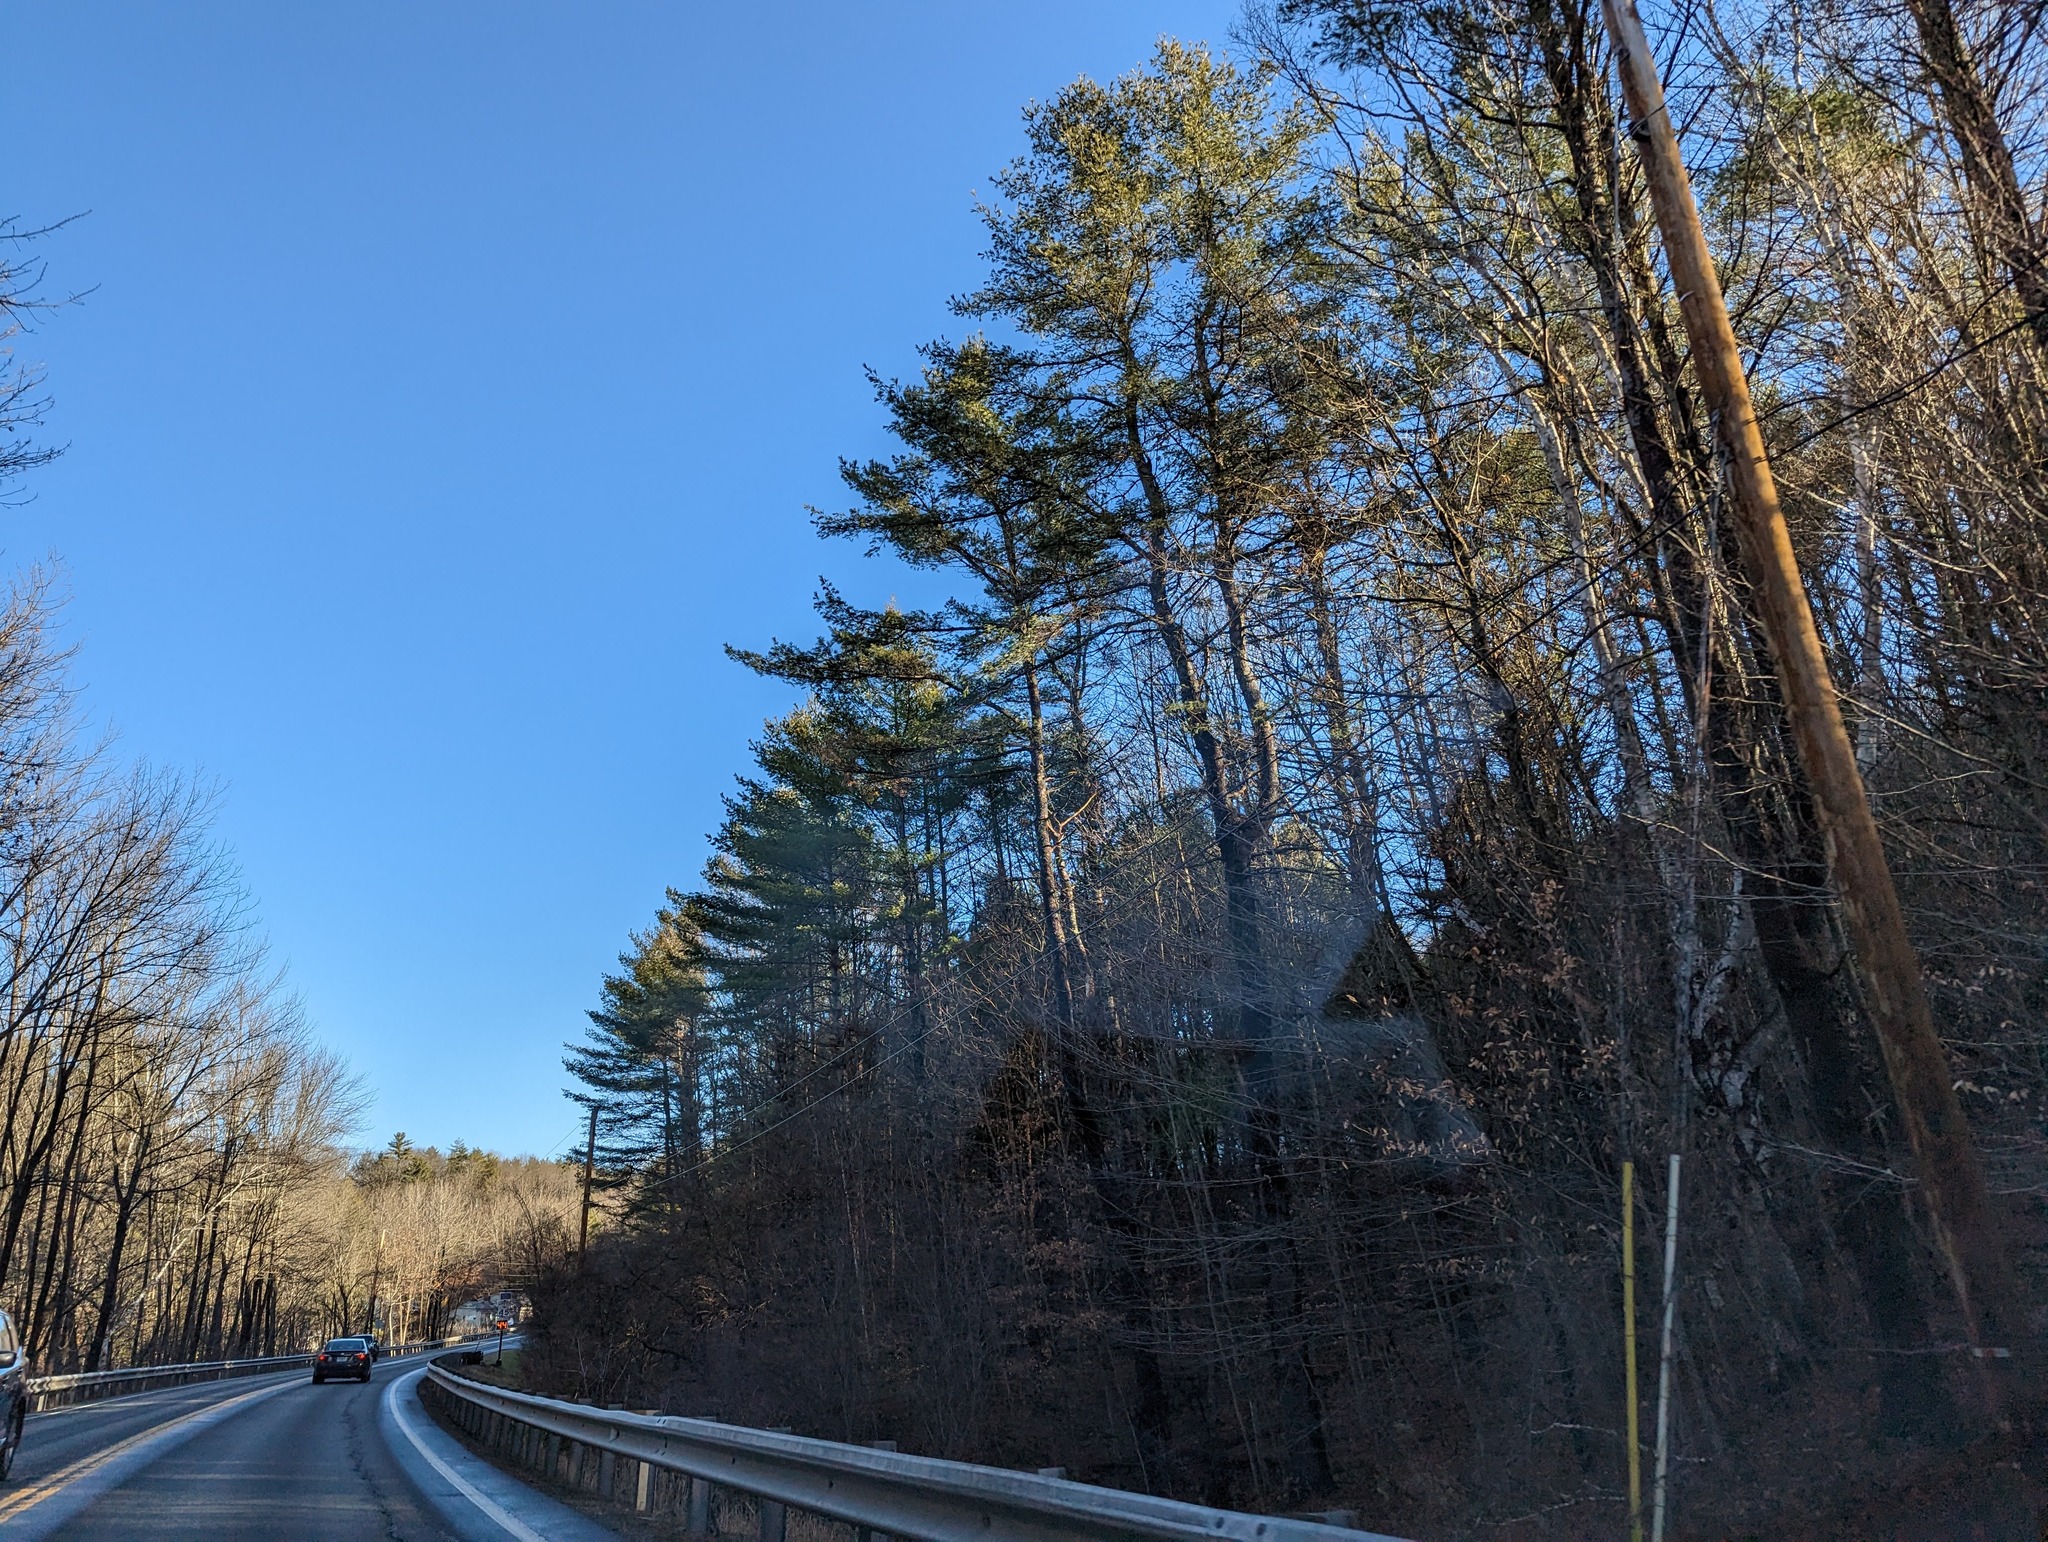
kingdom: Plantae
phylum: Tracheophyta
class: Pinopsida
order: Pinales
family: Pinaceae
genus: Pinus
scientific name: Pinus strobus
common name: Weymouth pine
